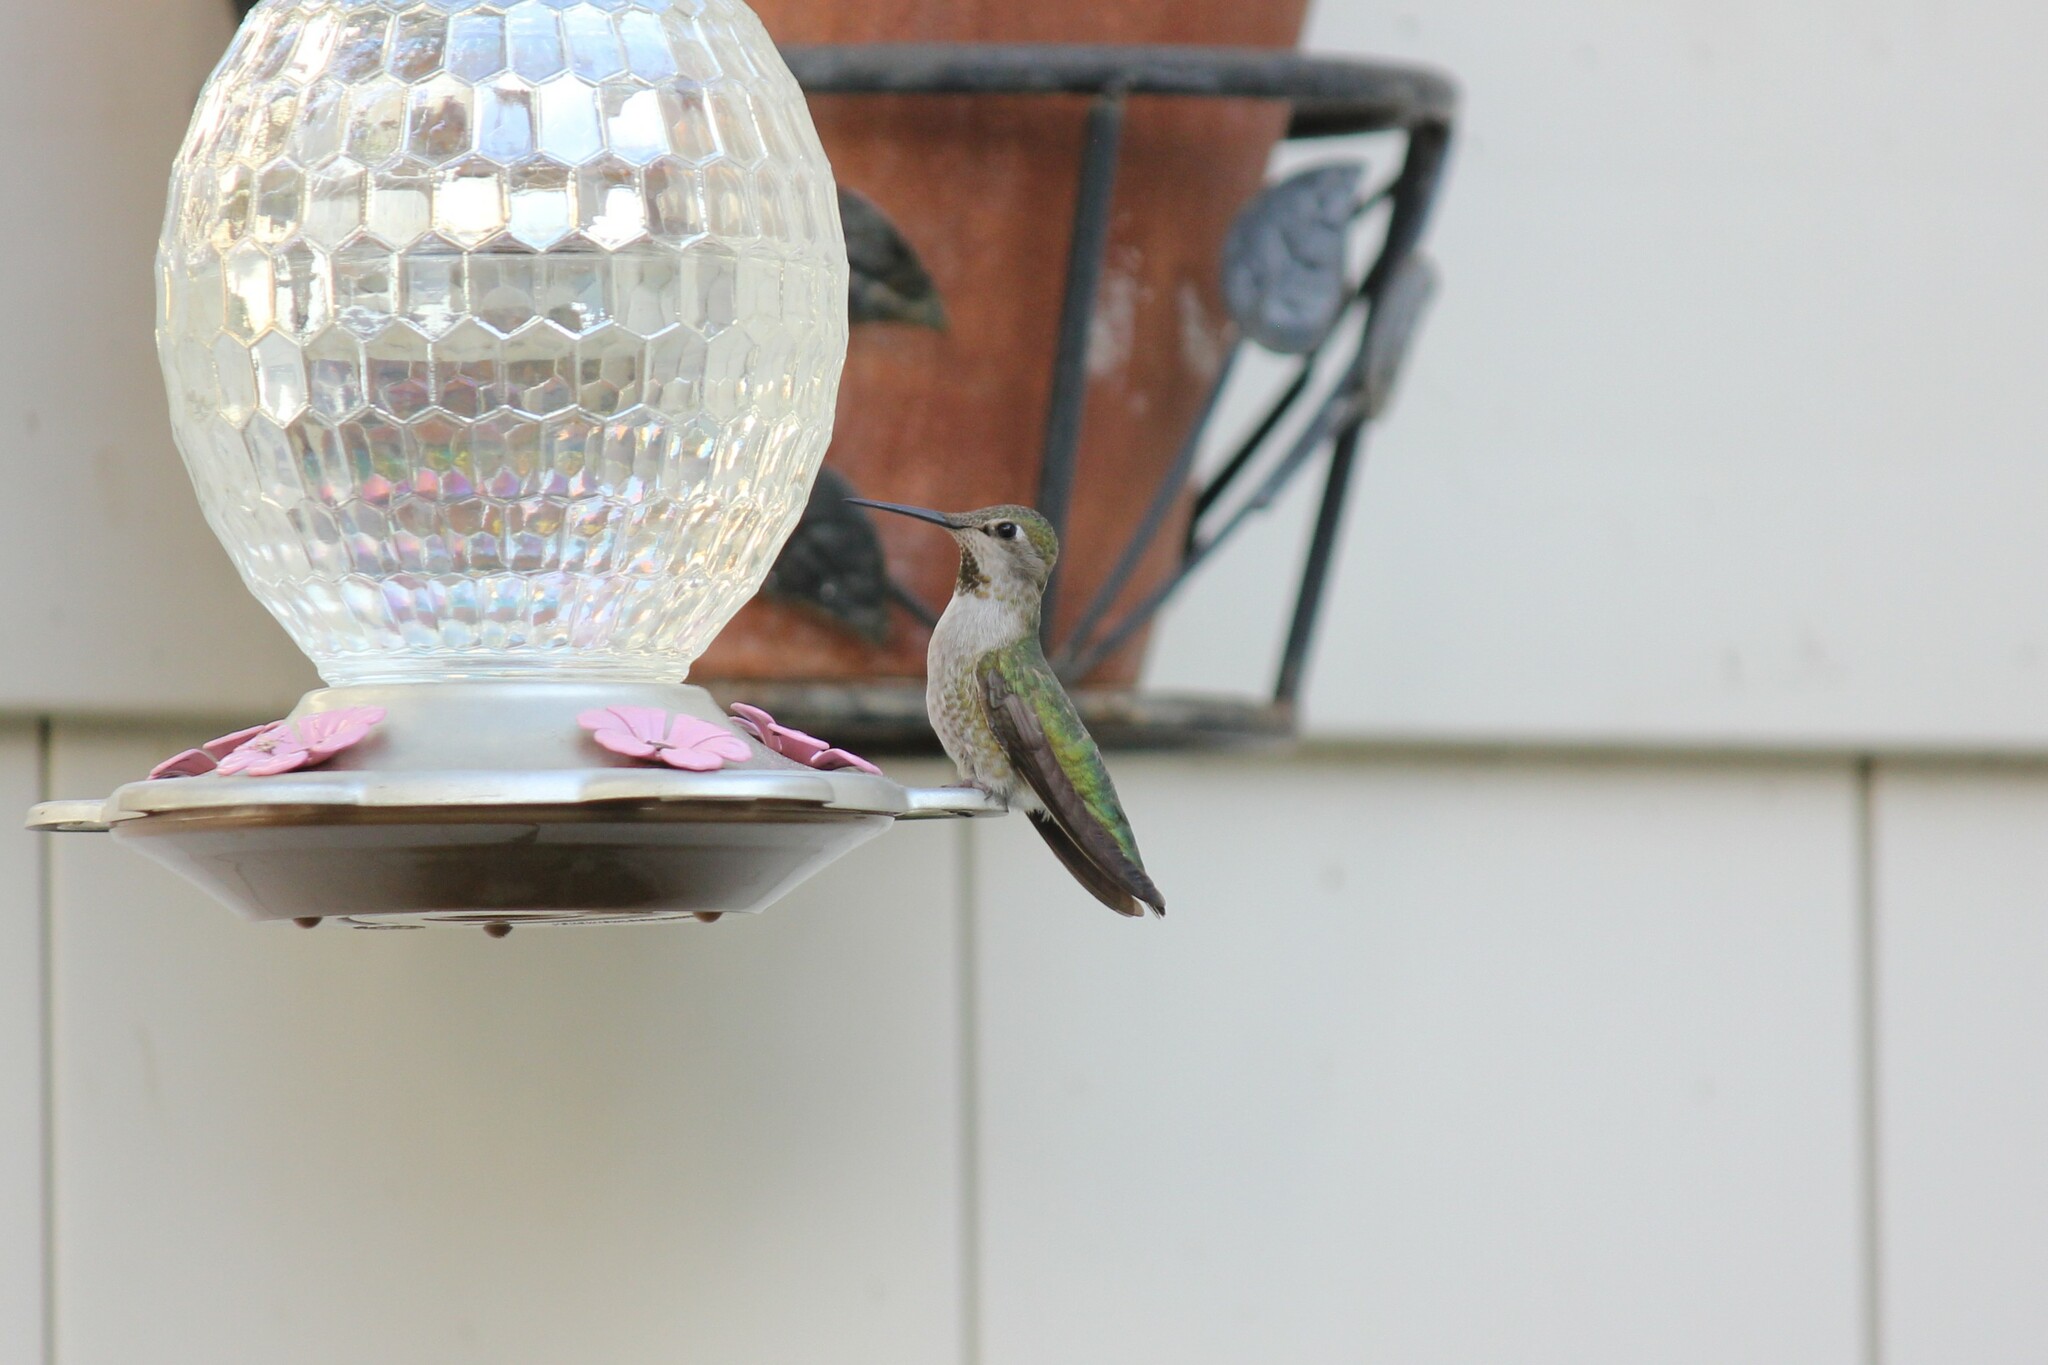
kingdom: Animalia
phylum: Chordata
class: Aves
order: Apodiformes
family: Trochilidae
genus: Calypte
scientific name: Calypte anna
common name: Anna's hummingbird
